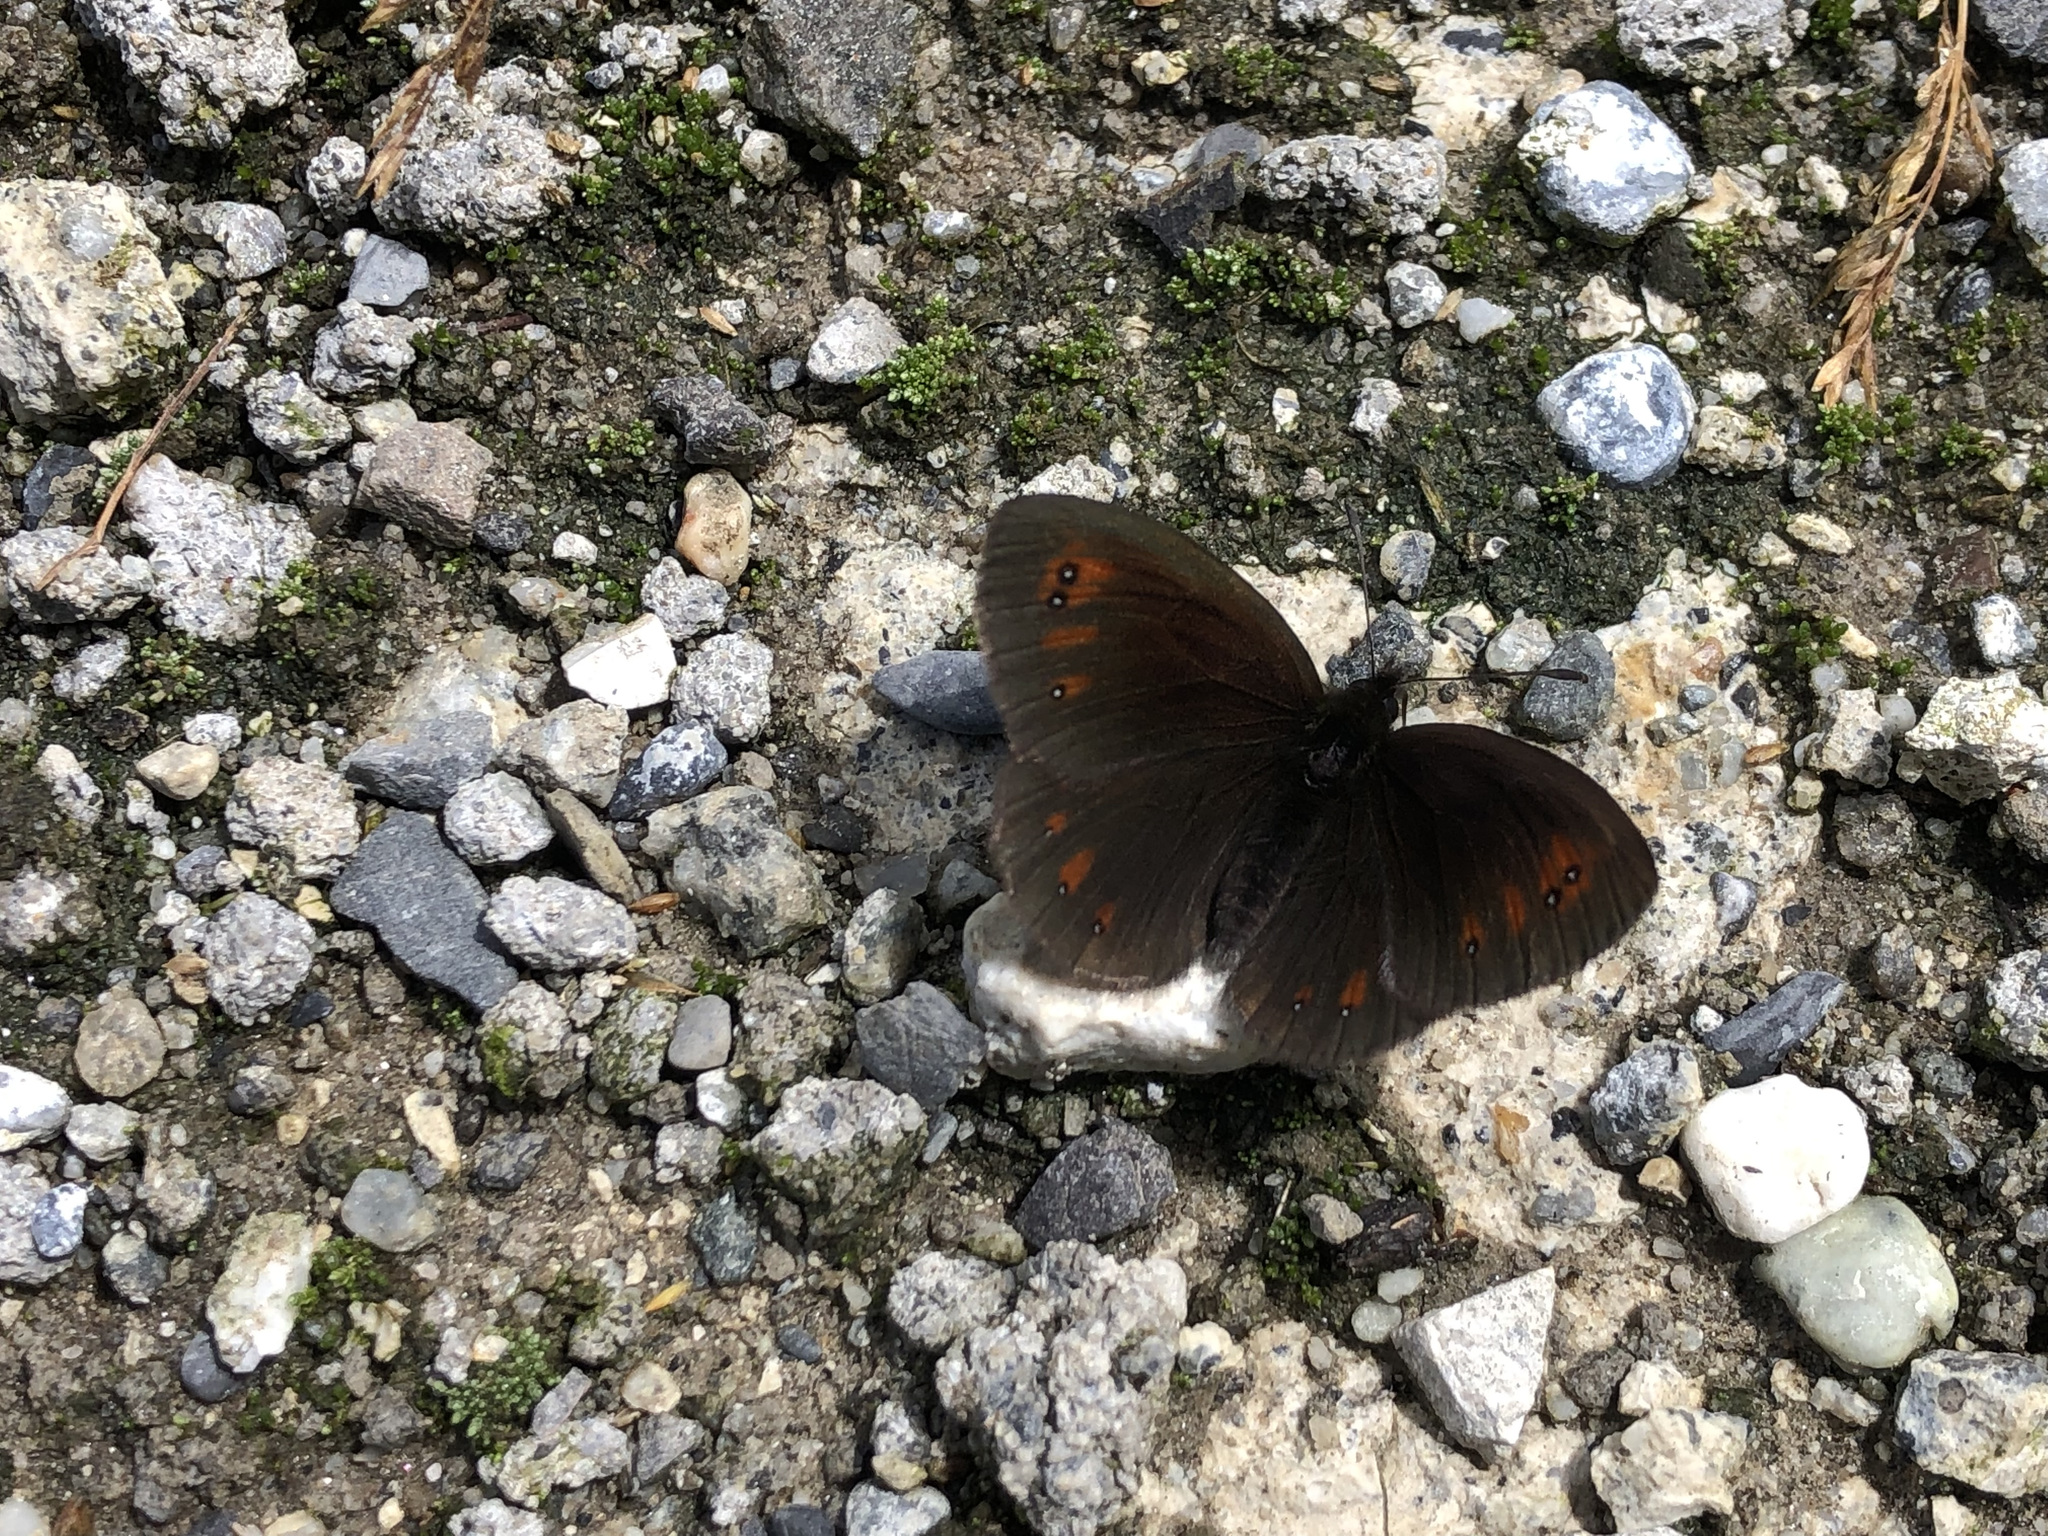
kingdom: Animalia
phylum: Arthropoda
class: Insecta
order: Lepidoptera
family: Nymphalidae
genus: Erebia
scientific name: Erebia meolans
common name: Piedmont ringlet
